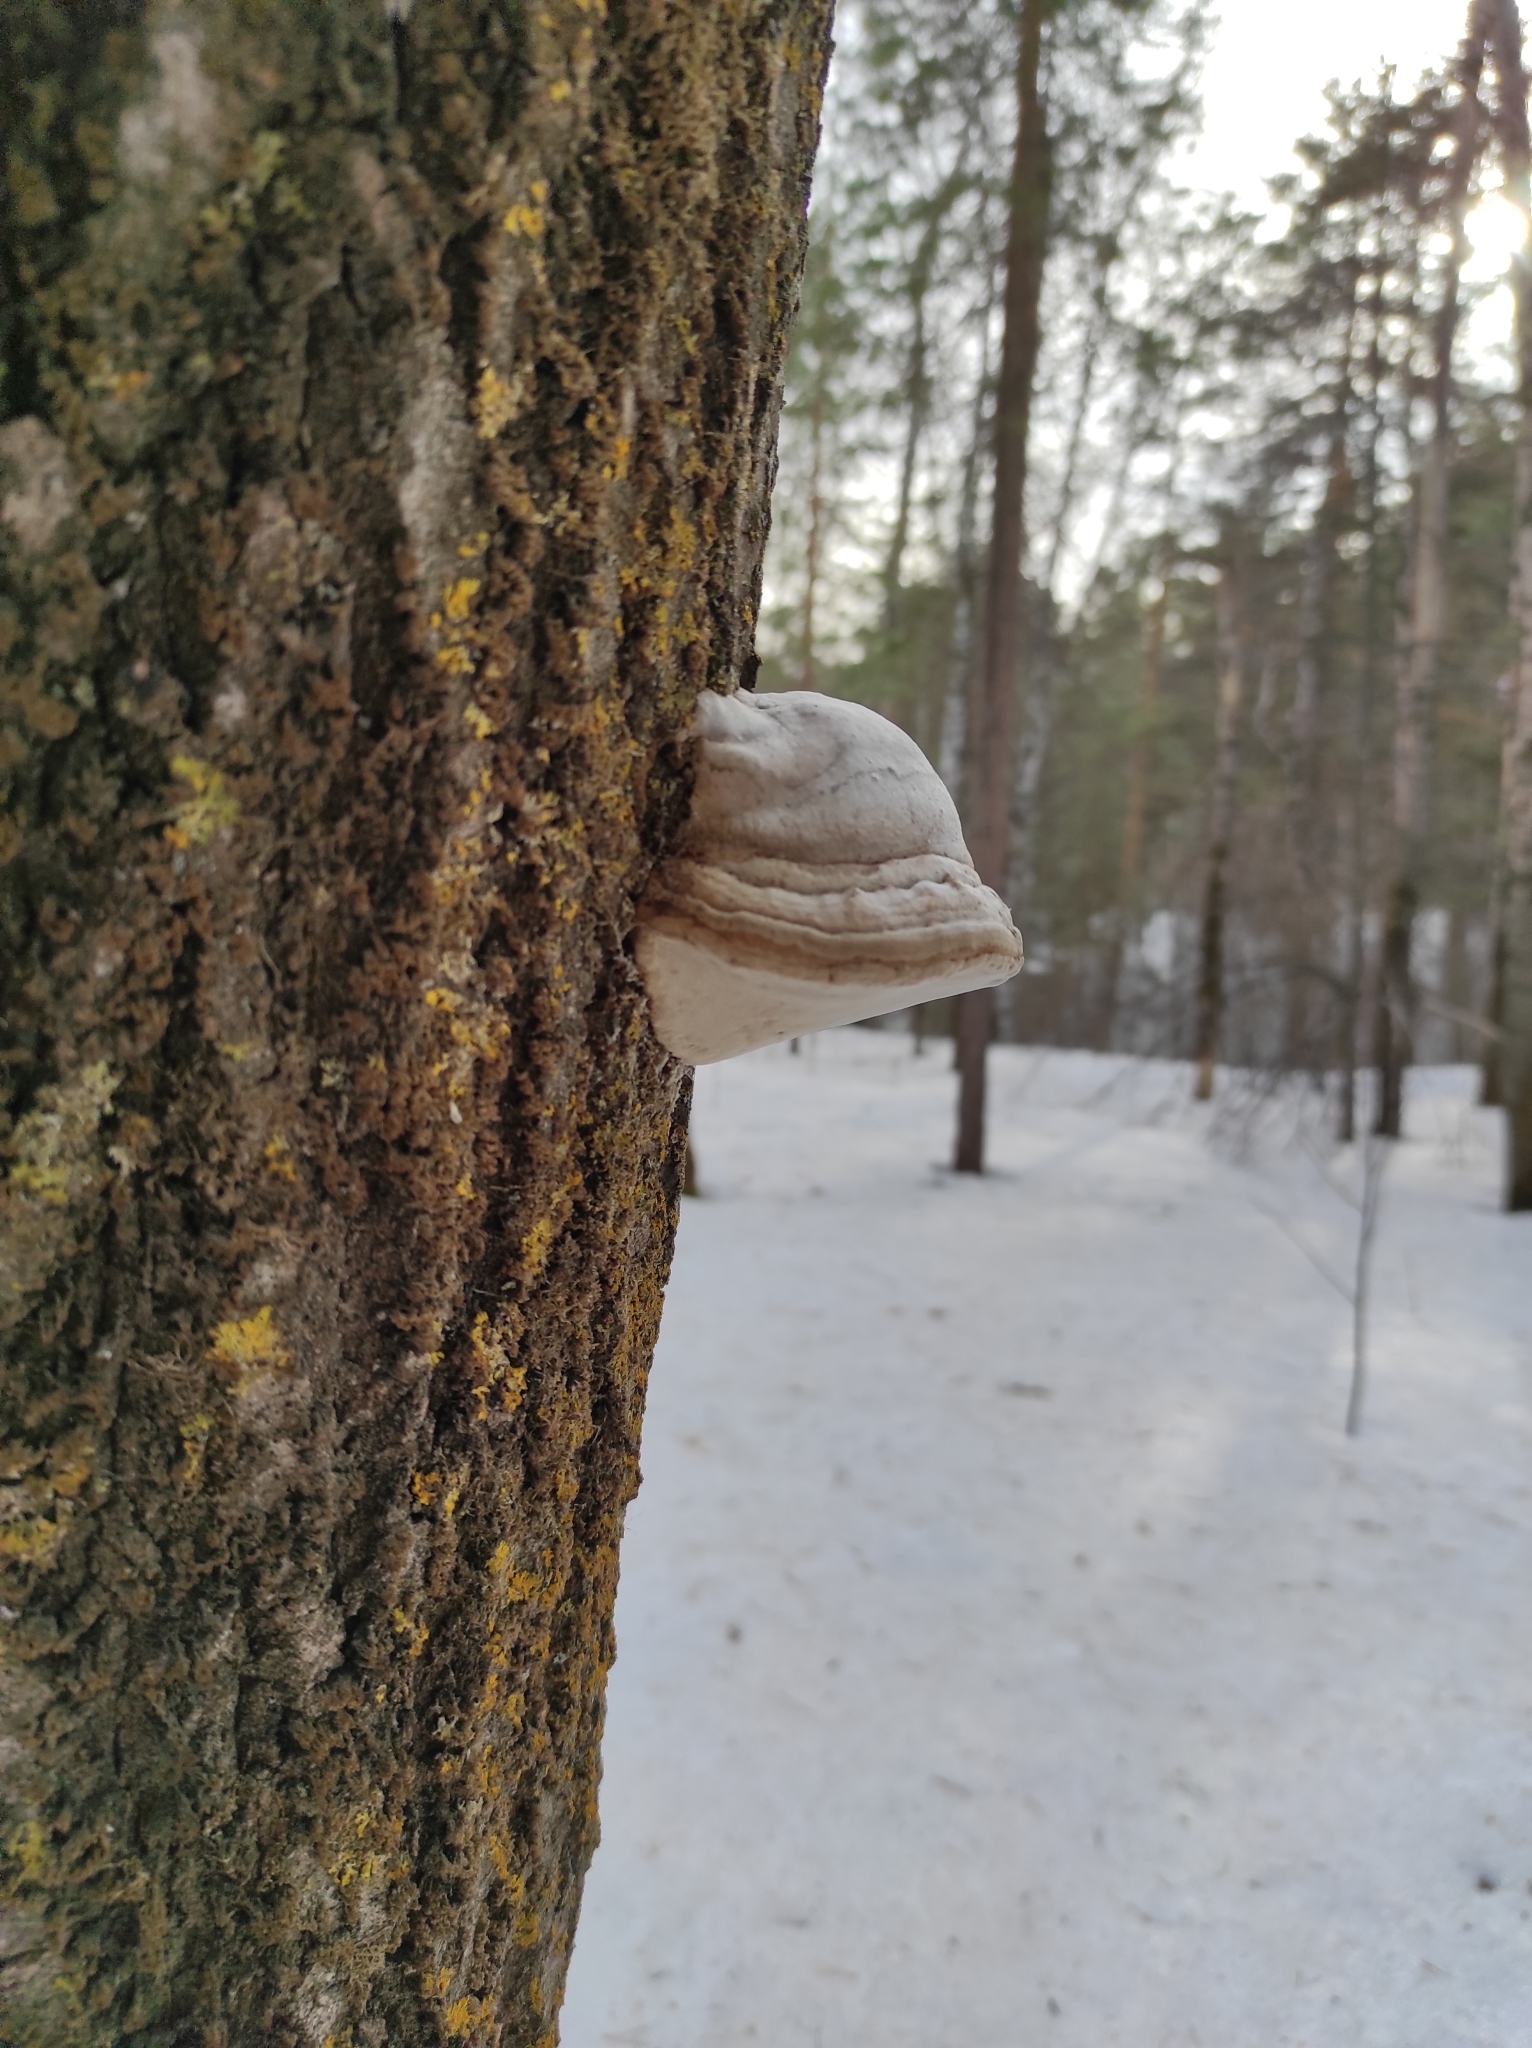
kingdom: Fungi
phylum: Basidiomycota
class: Agaricomycetes
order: Polyporales
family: Polyporaceae
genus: Fomes
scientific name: Fomes fomentarius
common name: Hoof fungus
